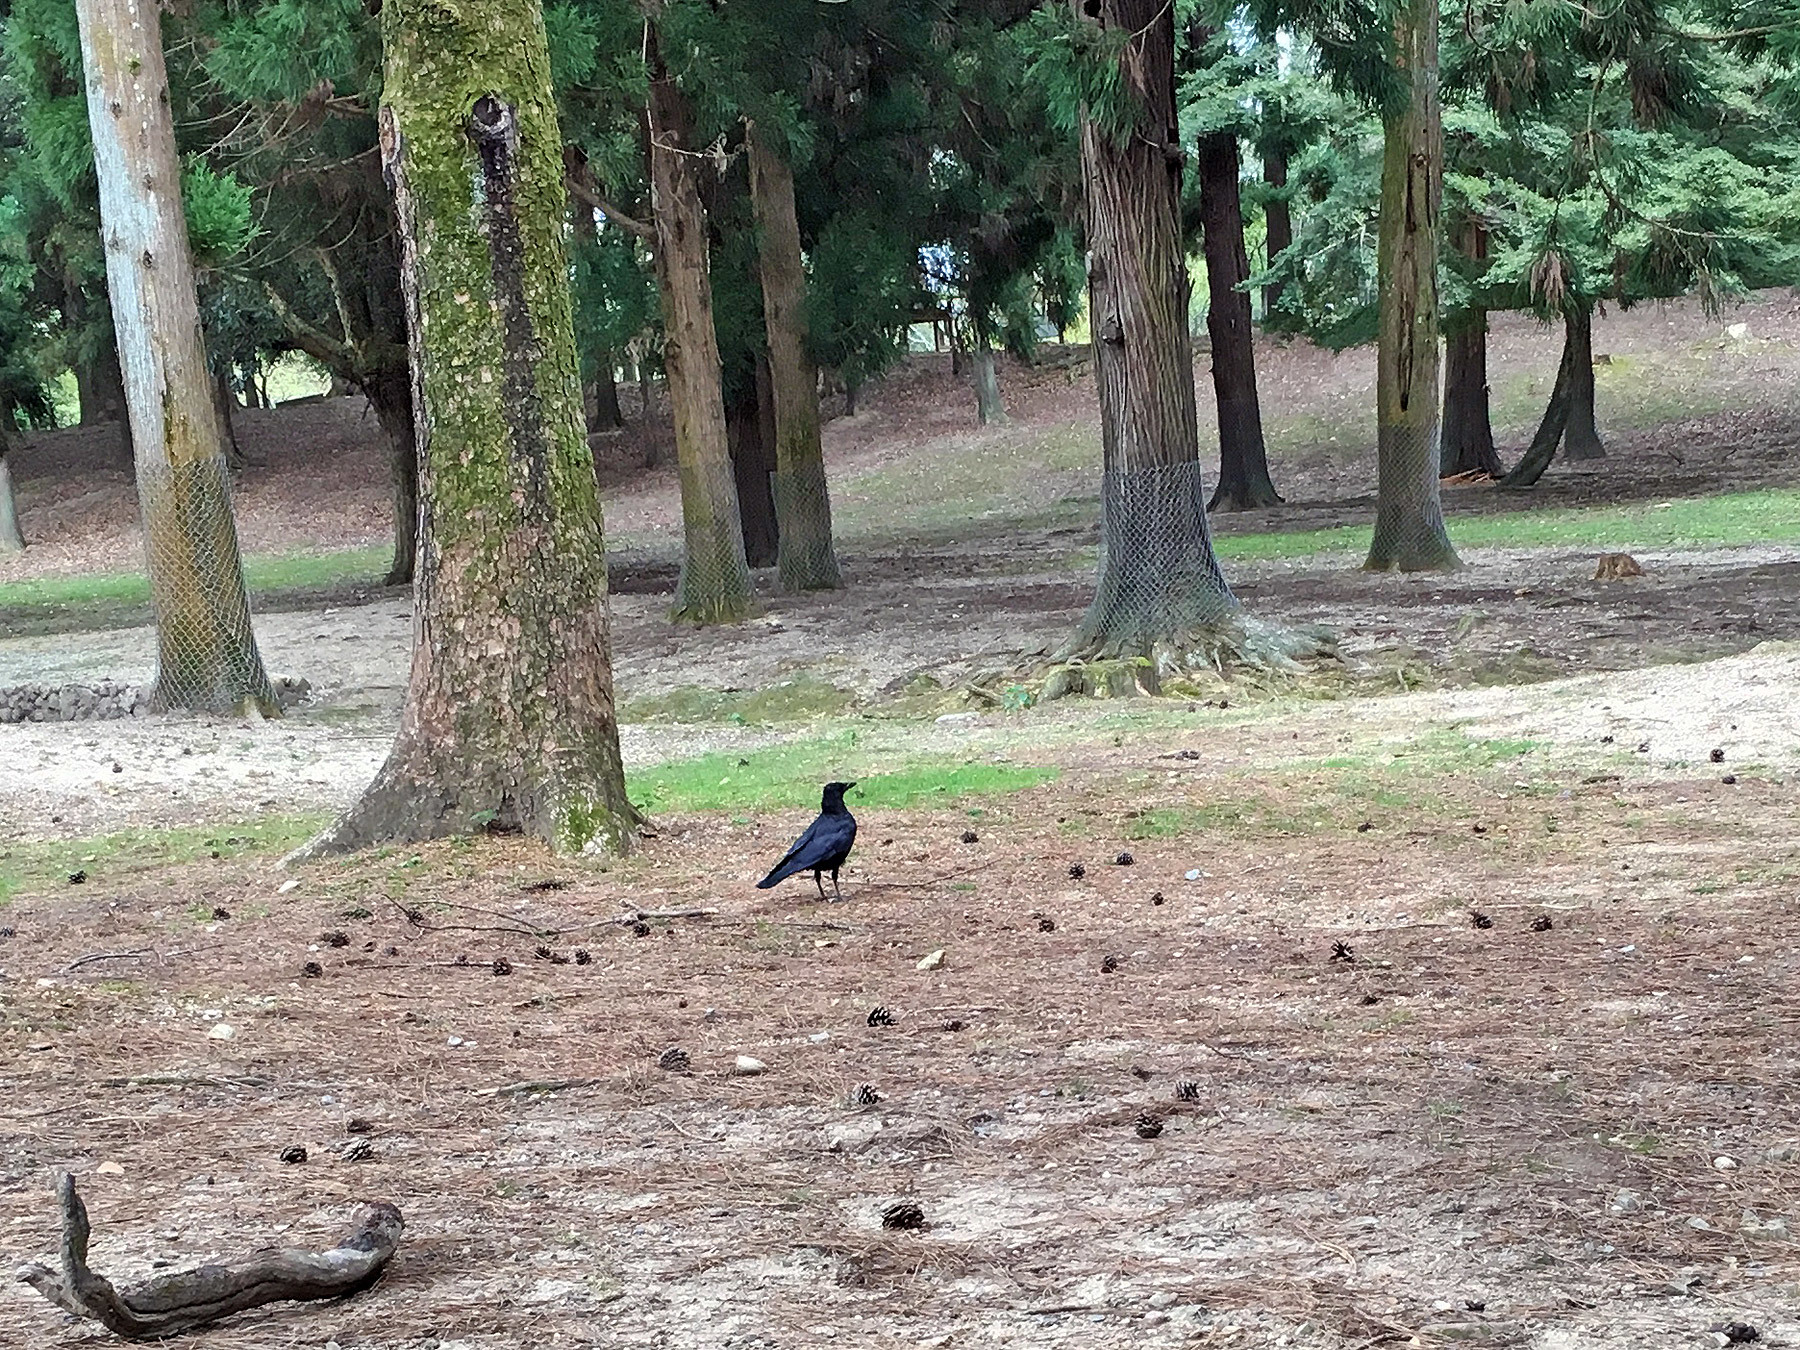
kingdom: Animalia
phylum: Chordata
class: Aves
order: Passeriformes
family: Corvidae
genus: Corvus
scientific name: Corvus corone
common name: Carrion crow
